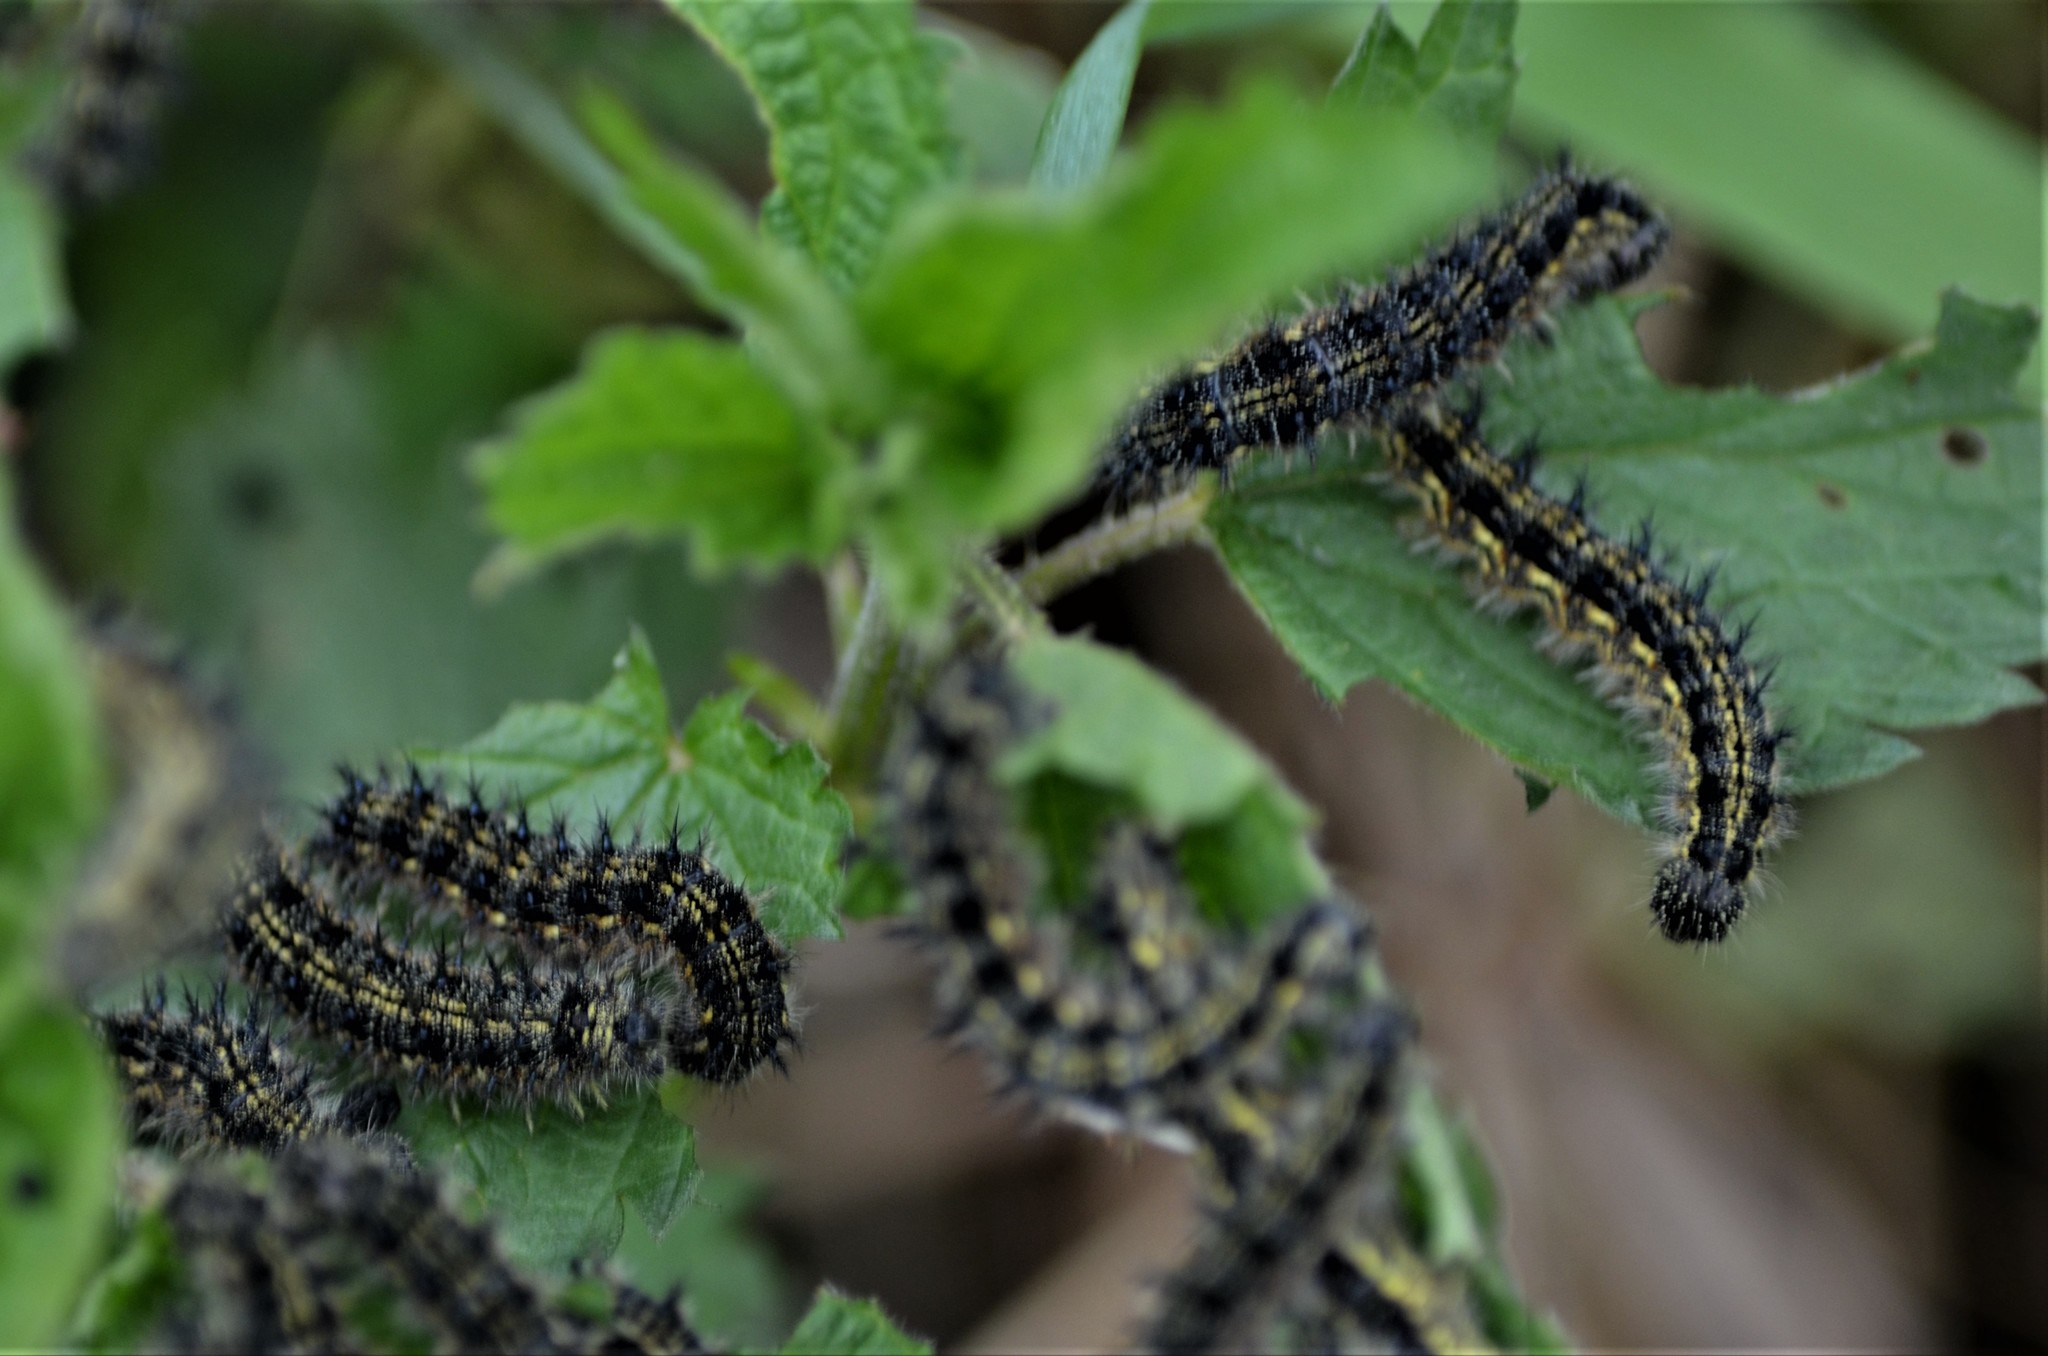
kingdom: Animalia
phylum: Arthropoda
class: Insecta
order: Lepidoptera
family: Nymphalidae
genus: Aglais
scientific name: Aglais urticae
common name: Small tortoiseshell
